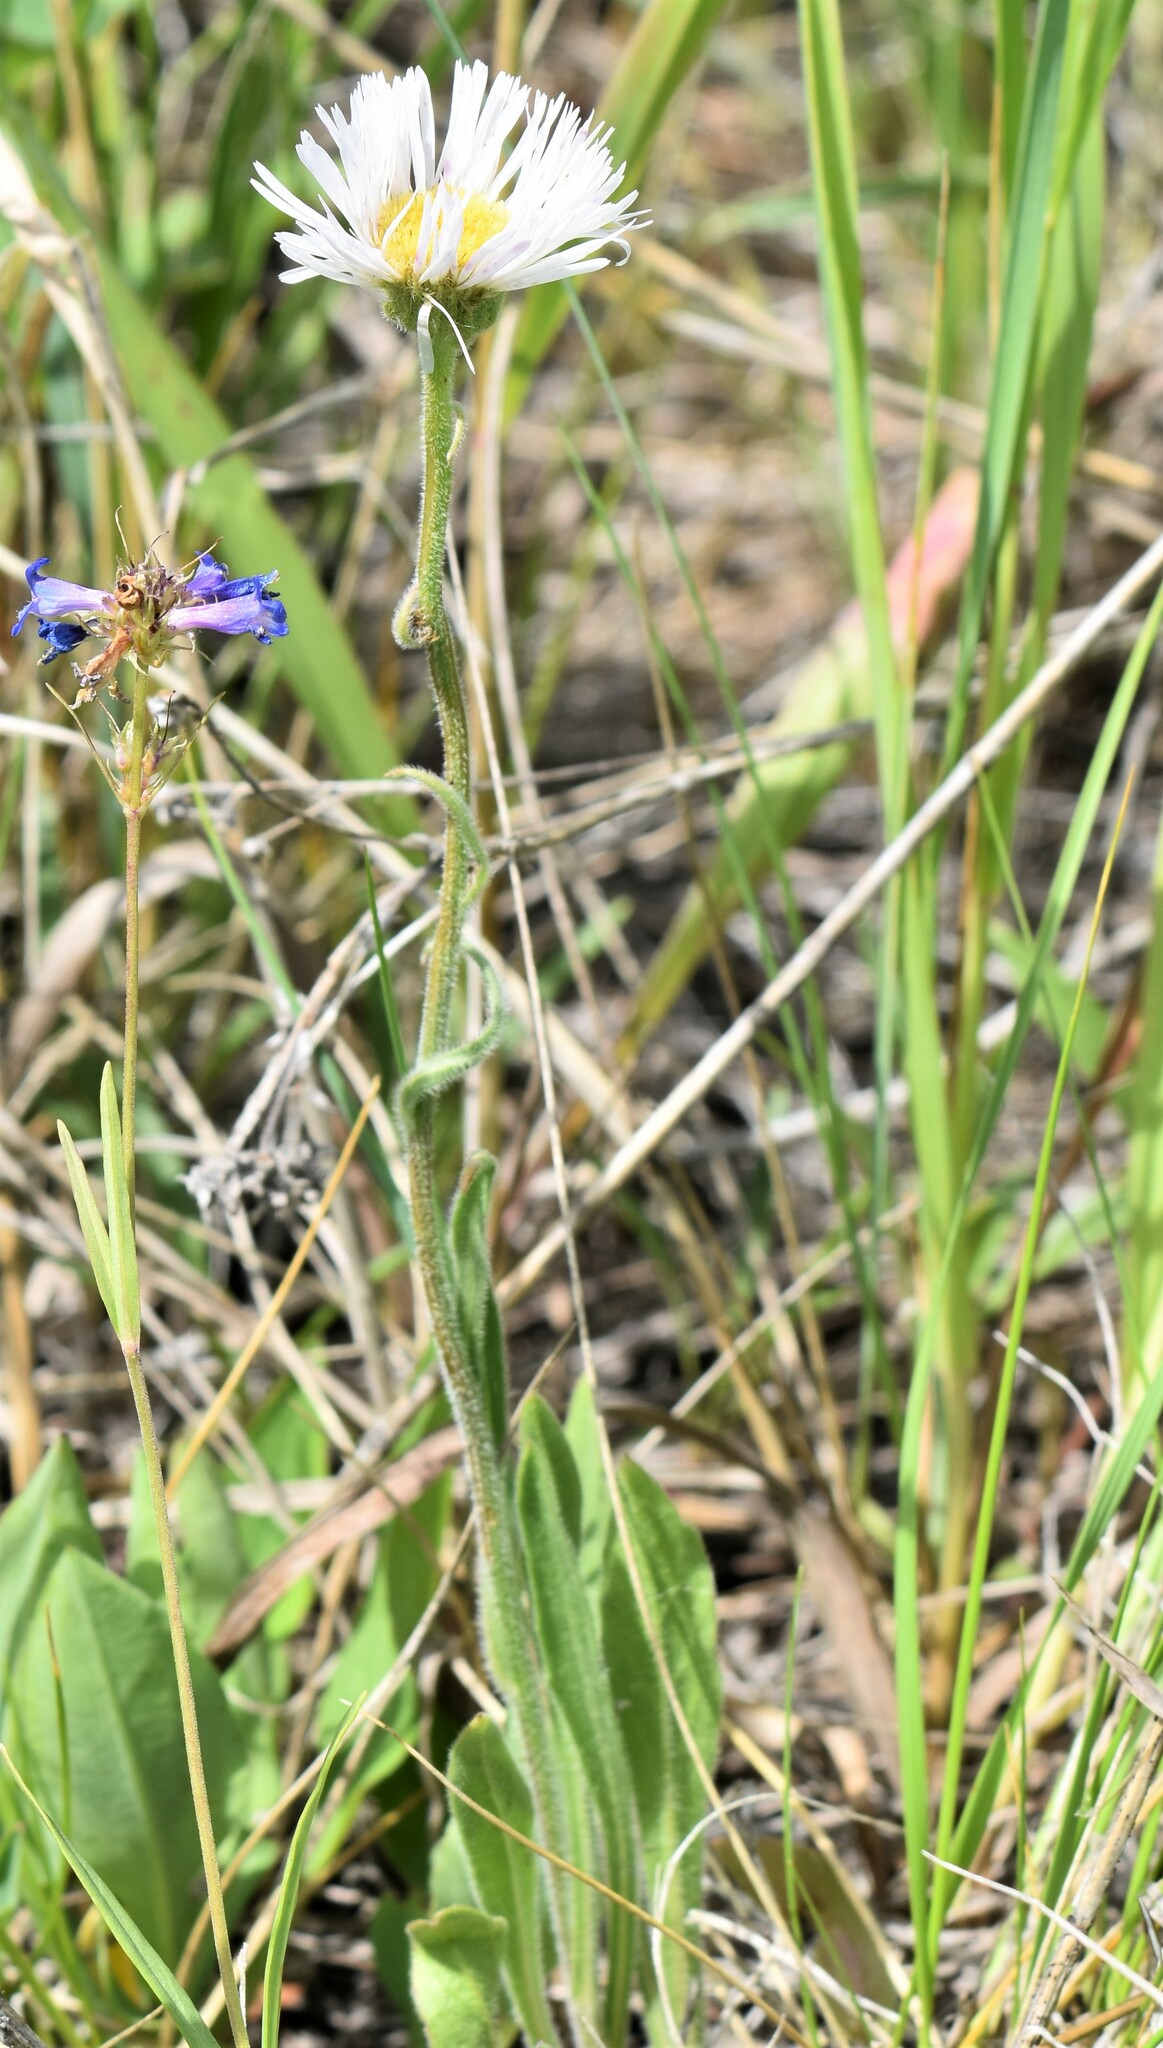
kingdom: Plantae
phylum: Tracheophyta
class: Magnoliopsida
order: Asterales
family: Asteraceae
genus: Erigeron
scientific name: Erigeron glabellus
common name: Smooth fleabane
